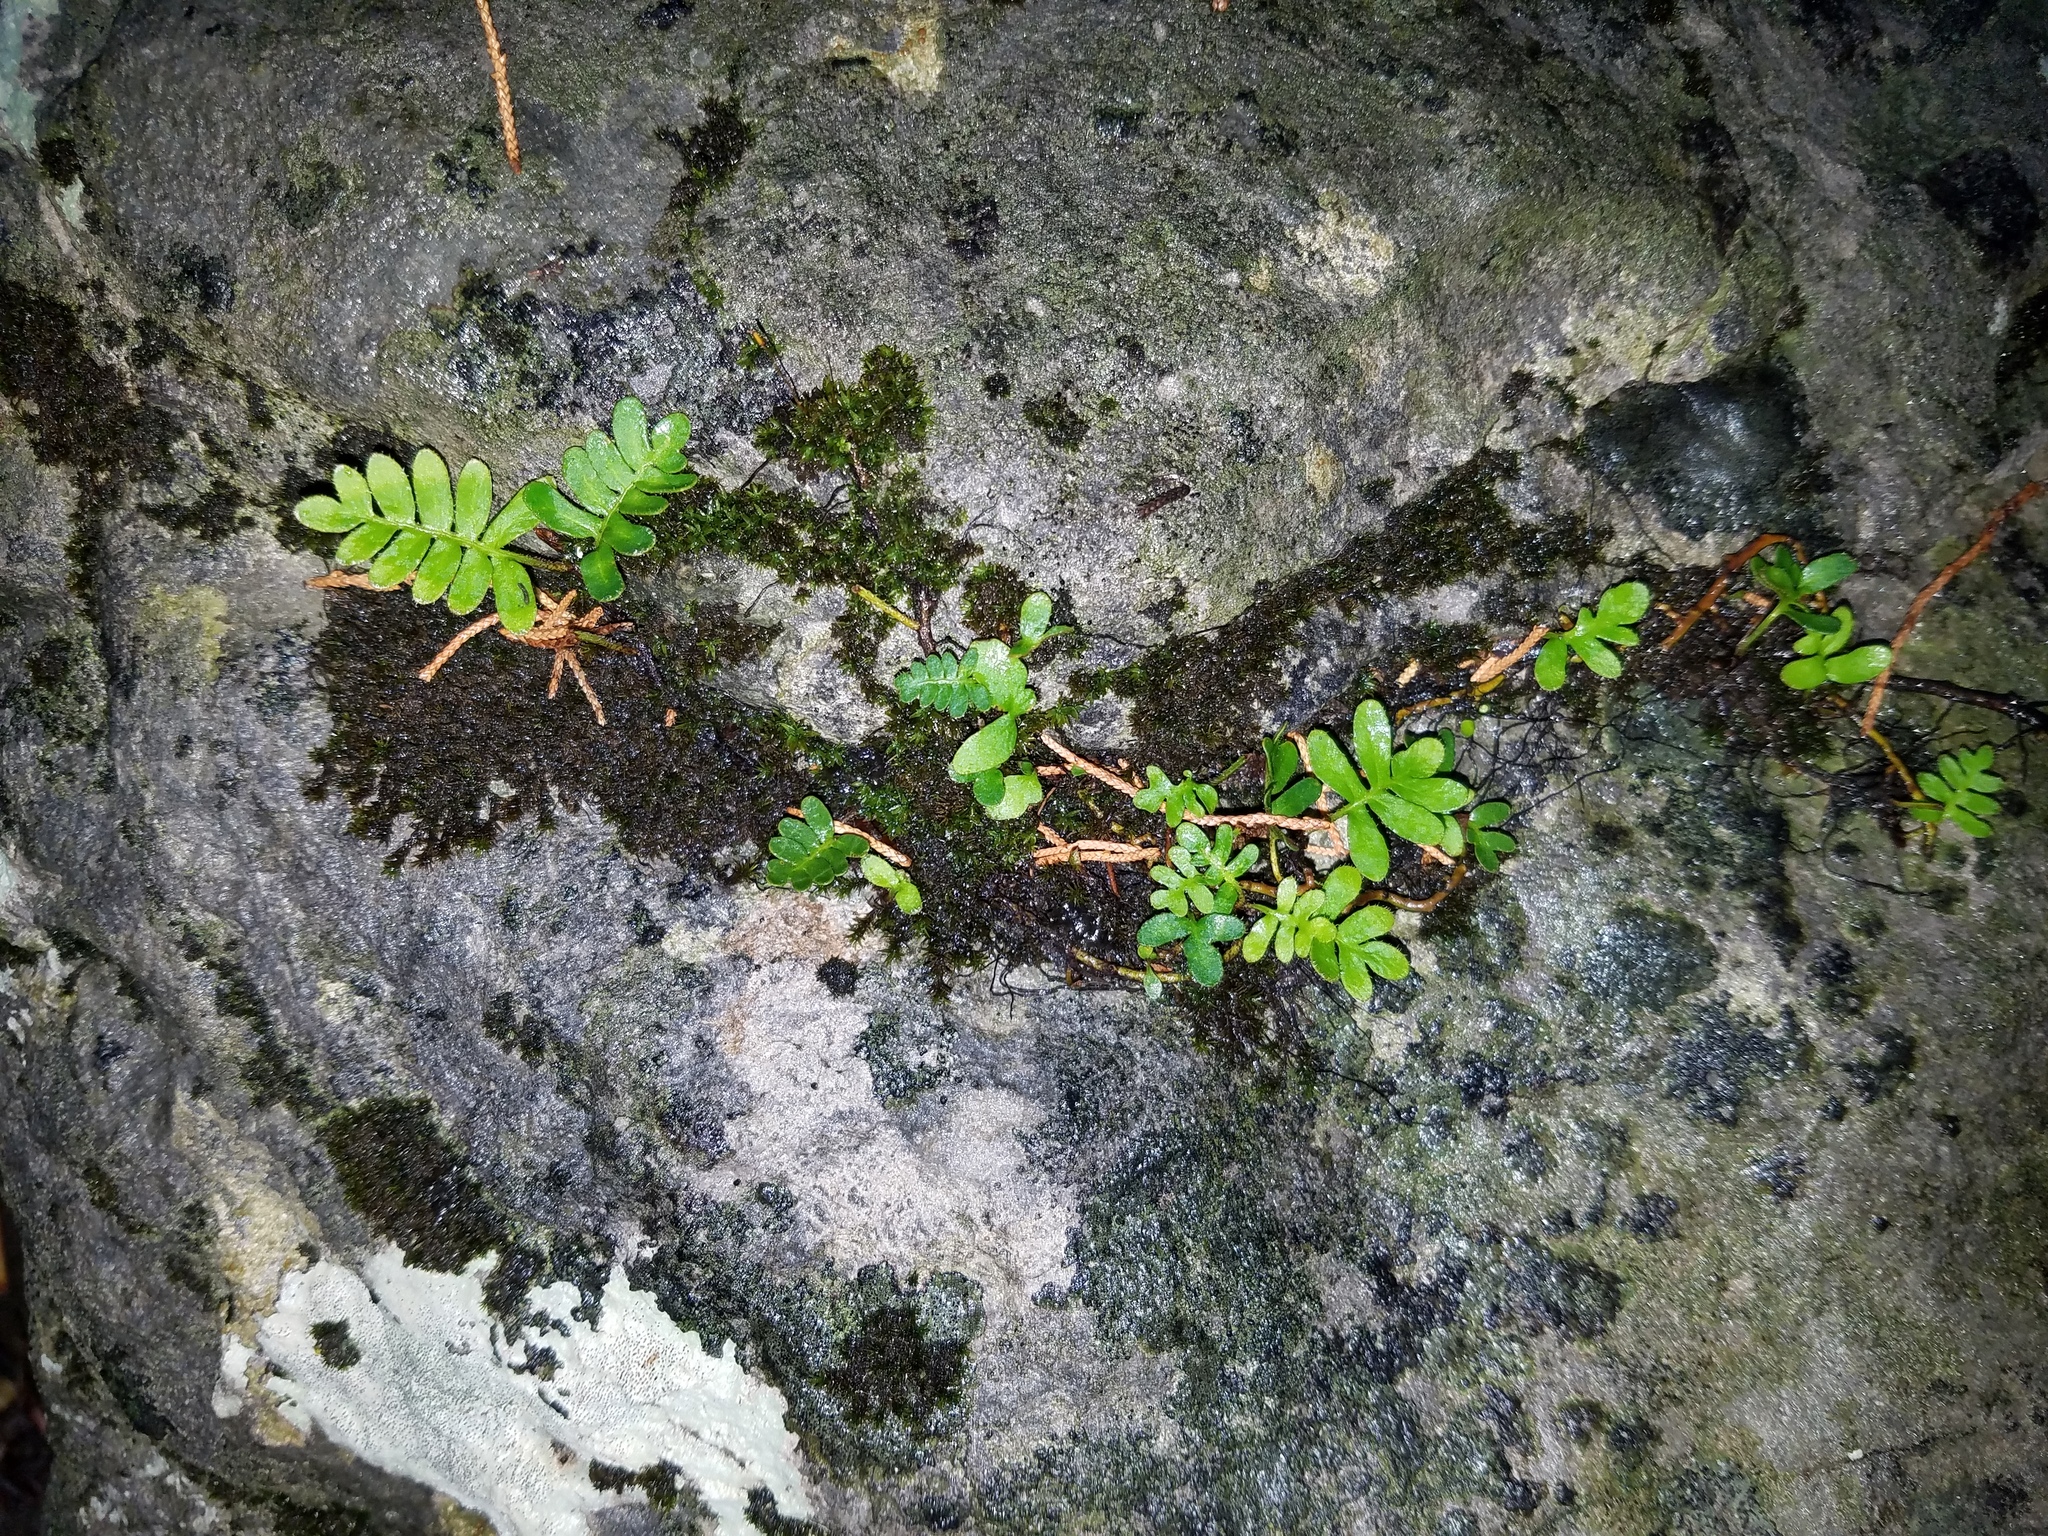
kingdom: Plantae
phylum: Tracheophyta
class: Polypodiopsida
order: Polypodiales
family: Polypodiaceae
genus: Pleopeltis
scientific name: Pleopeltis michauxiana
